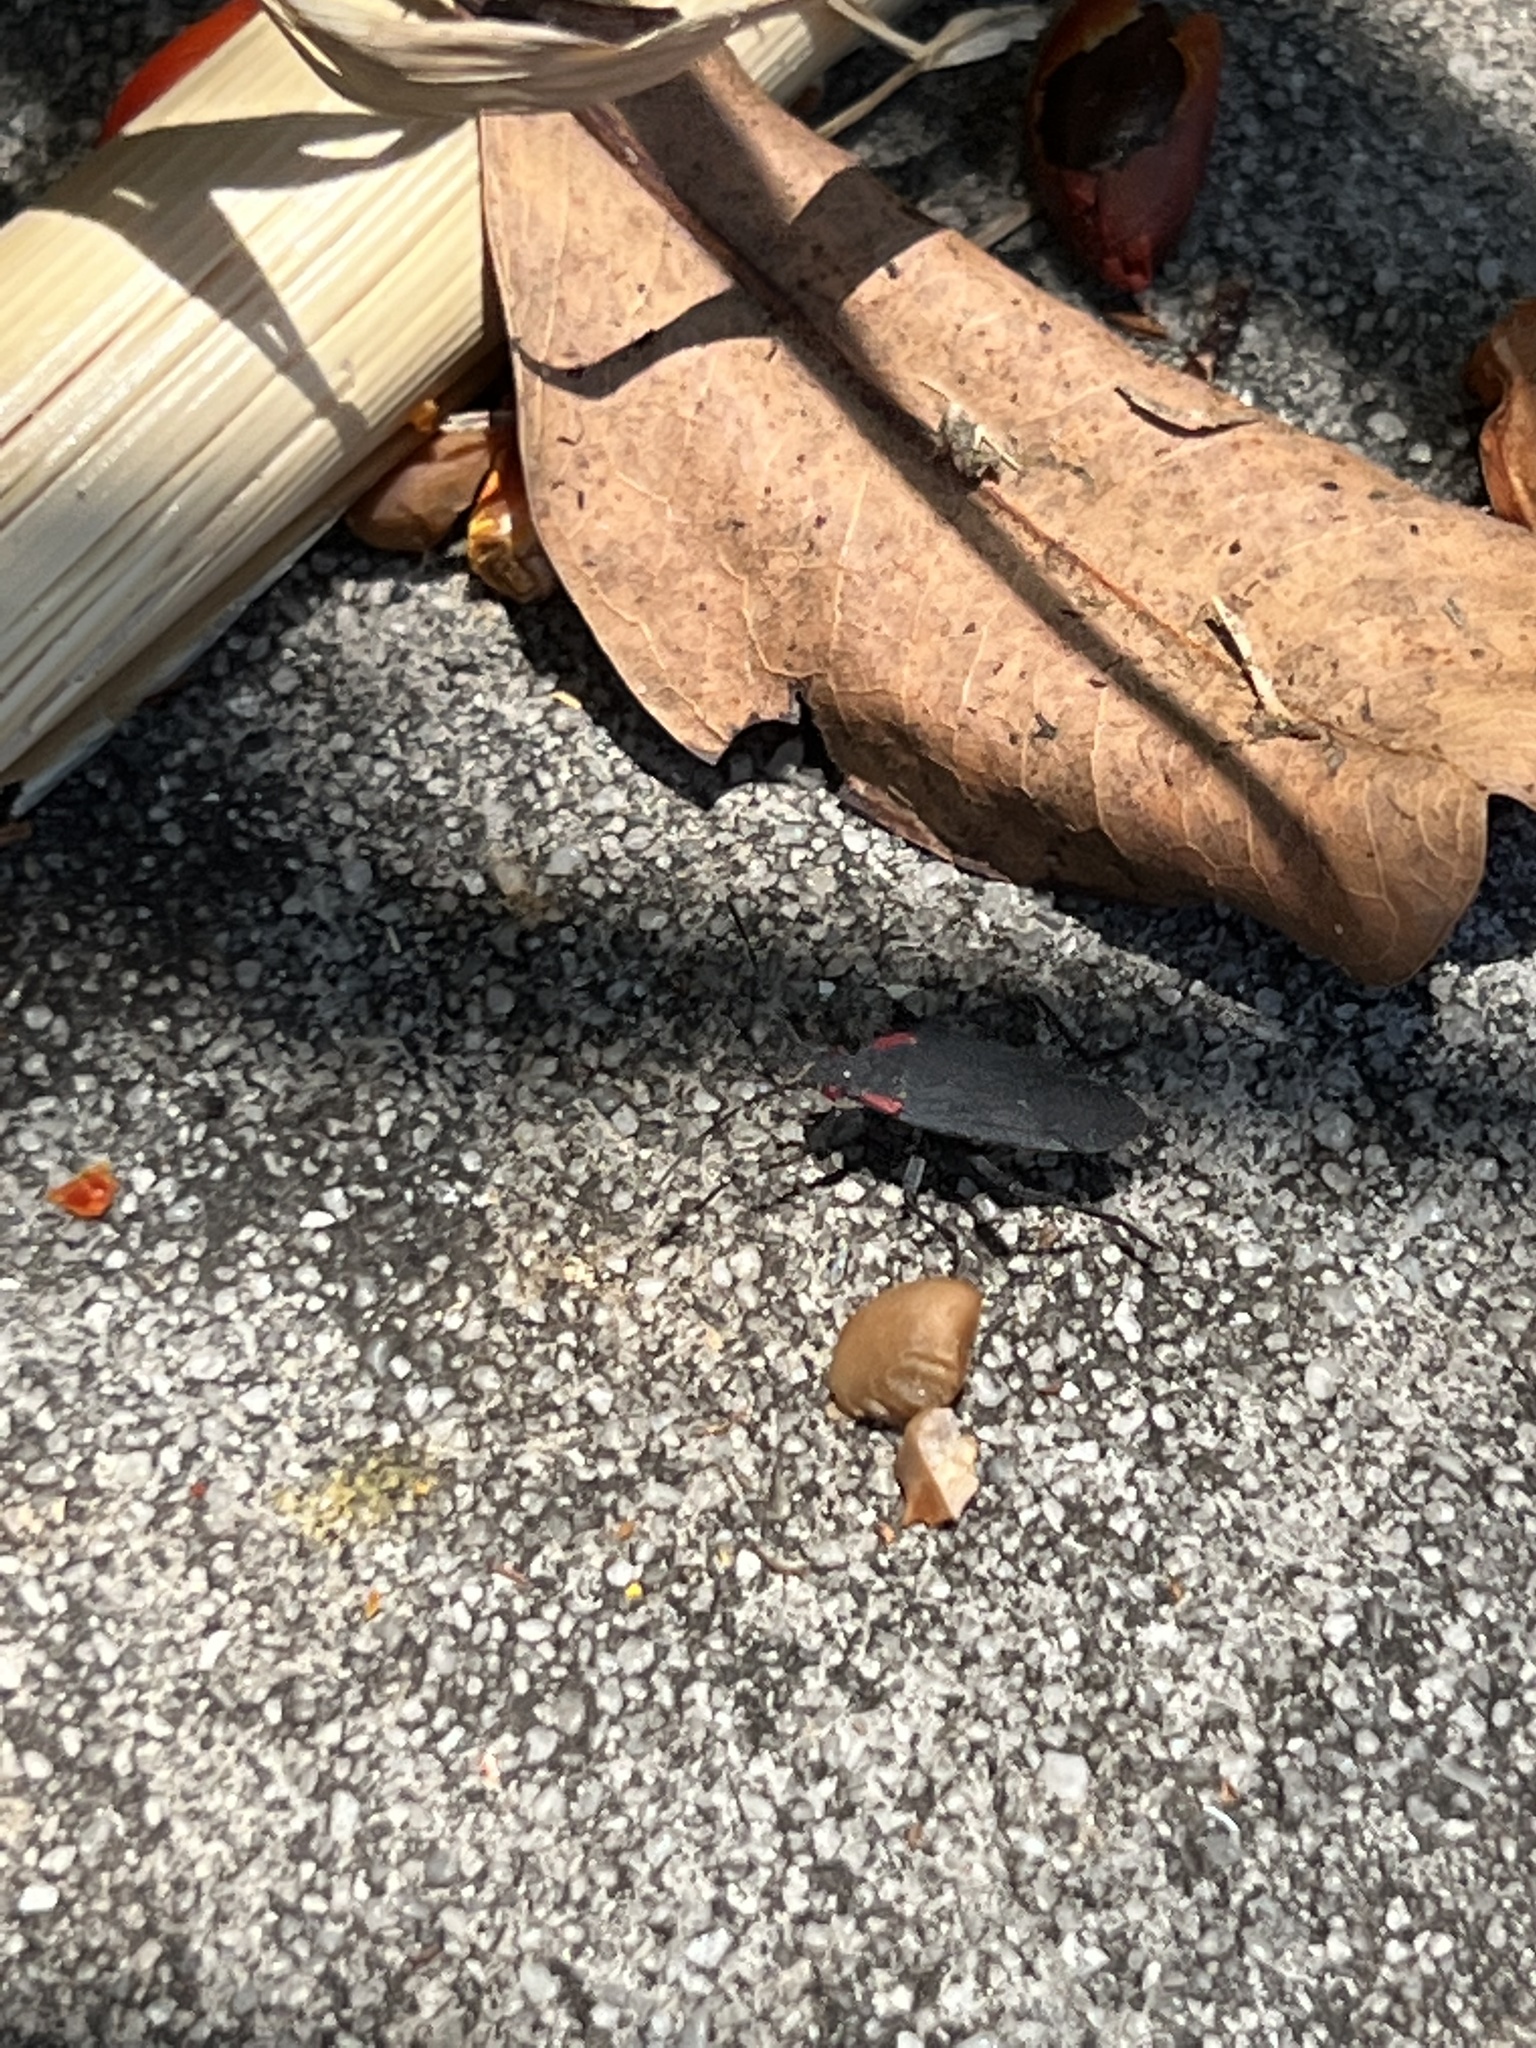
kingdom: Animalia
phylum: Arthropoda
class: Insecta
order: Hemiptera
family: Rhopalidae
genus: Jadera
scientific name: Jadera haematoloma
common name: Red-shouldered bug
